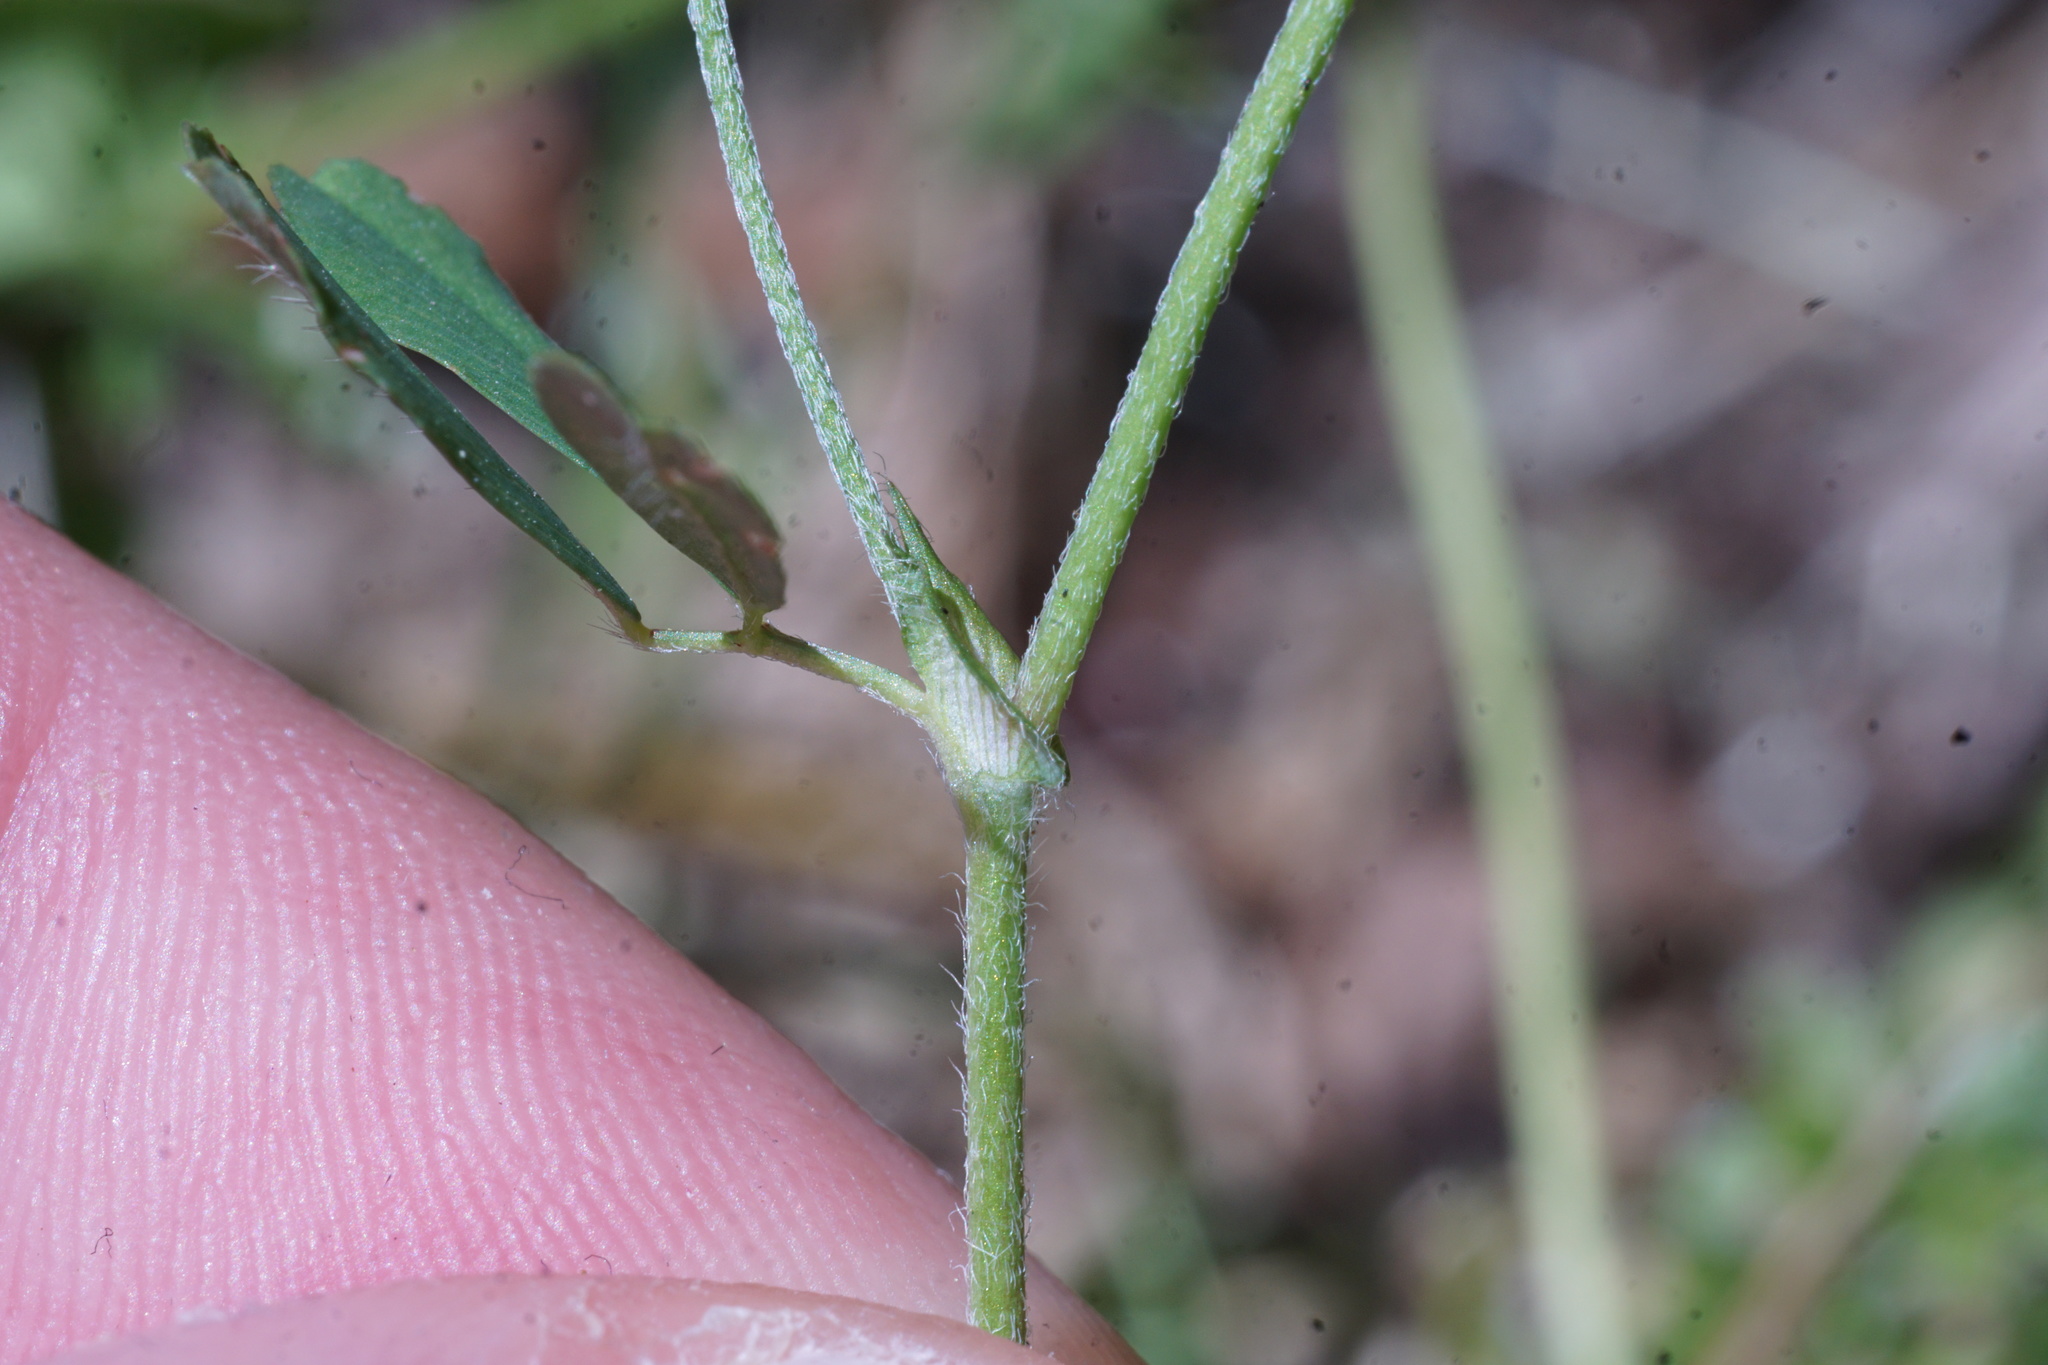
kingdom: Plantae
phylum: Tracheophyta
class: Magnoliopsida
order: Fabales
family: Fabaceae
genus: Trifolium
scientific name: Trifolium campestre
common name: Field clover
